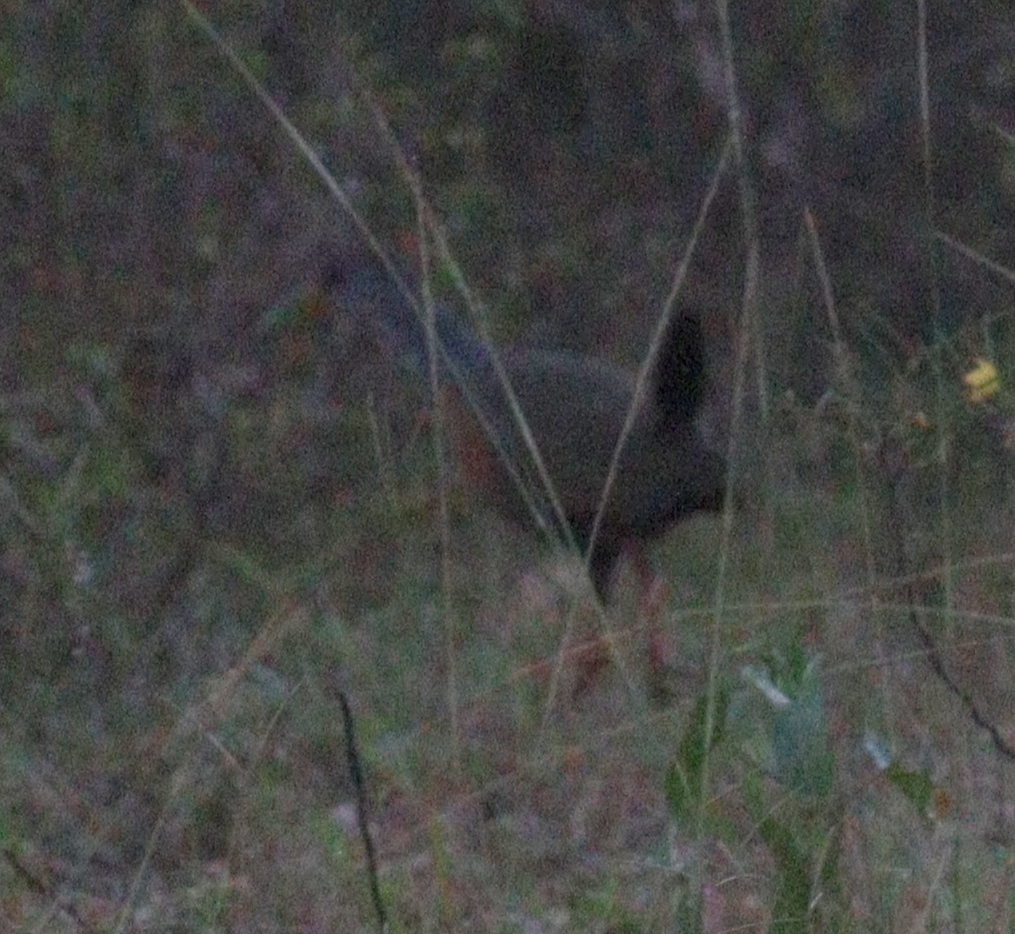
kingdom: Animalia
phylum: Chordata
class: Aves
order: Gruiformes
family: Rallidae
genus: Aramides
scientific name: Aramides cajanea
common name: Gray-necked wood-rail
